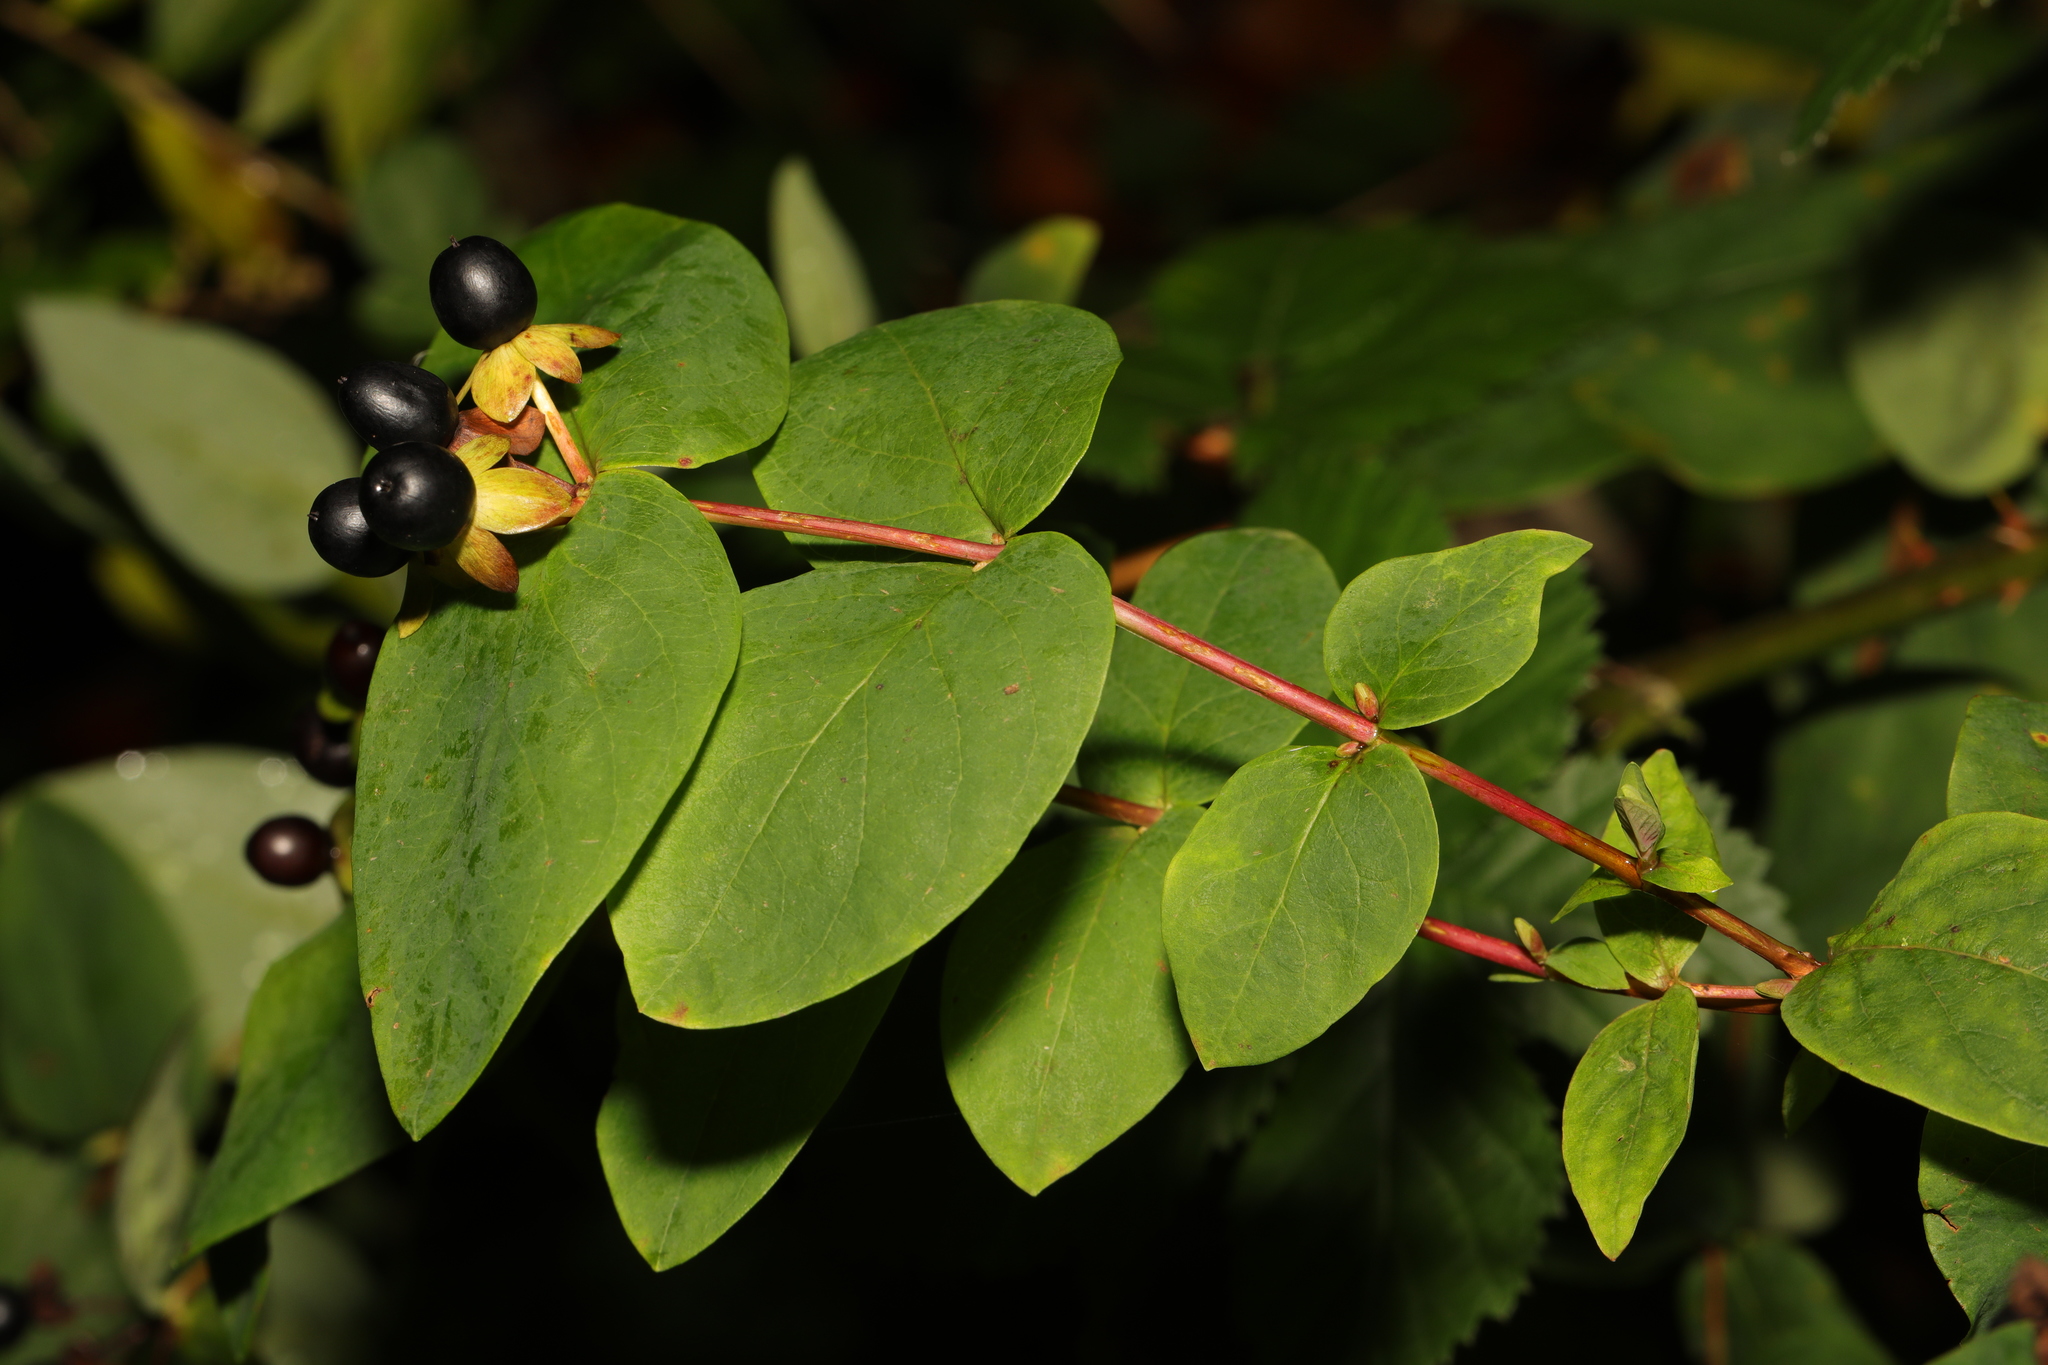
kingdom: Plantae
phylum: Tracheophyta
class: Magnoliopsida
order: Malpighiales
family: Hypericaceae
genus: Hypericum
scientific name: Hypericum androsaemum
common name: Sweet-amber
